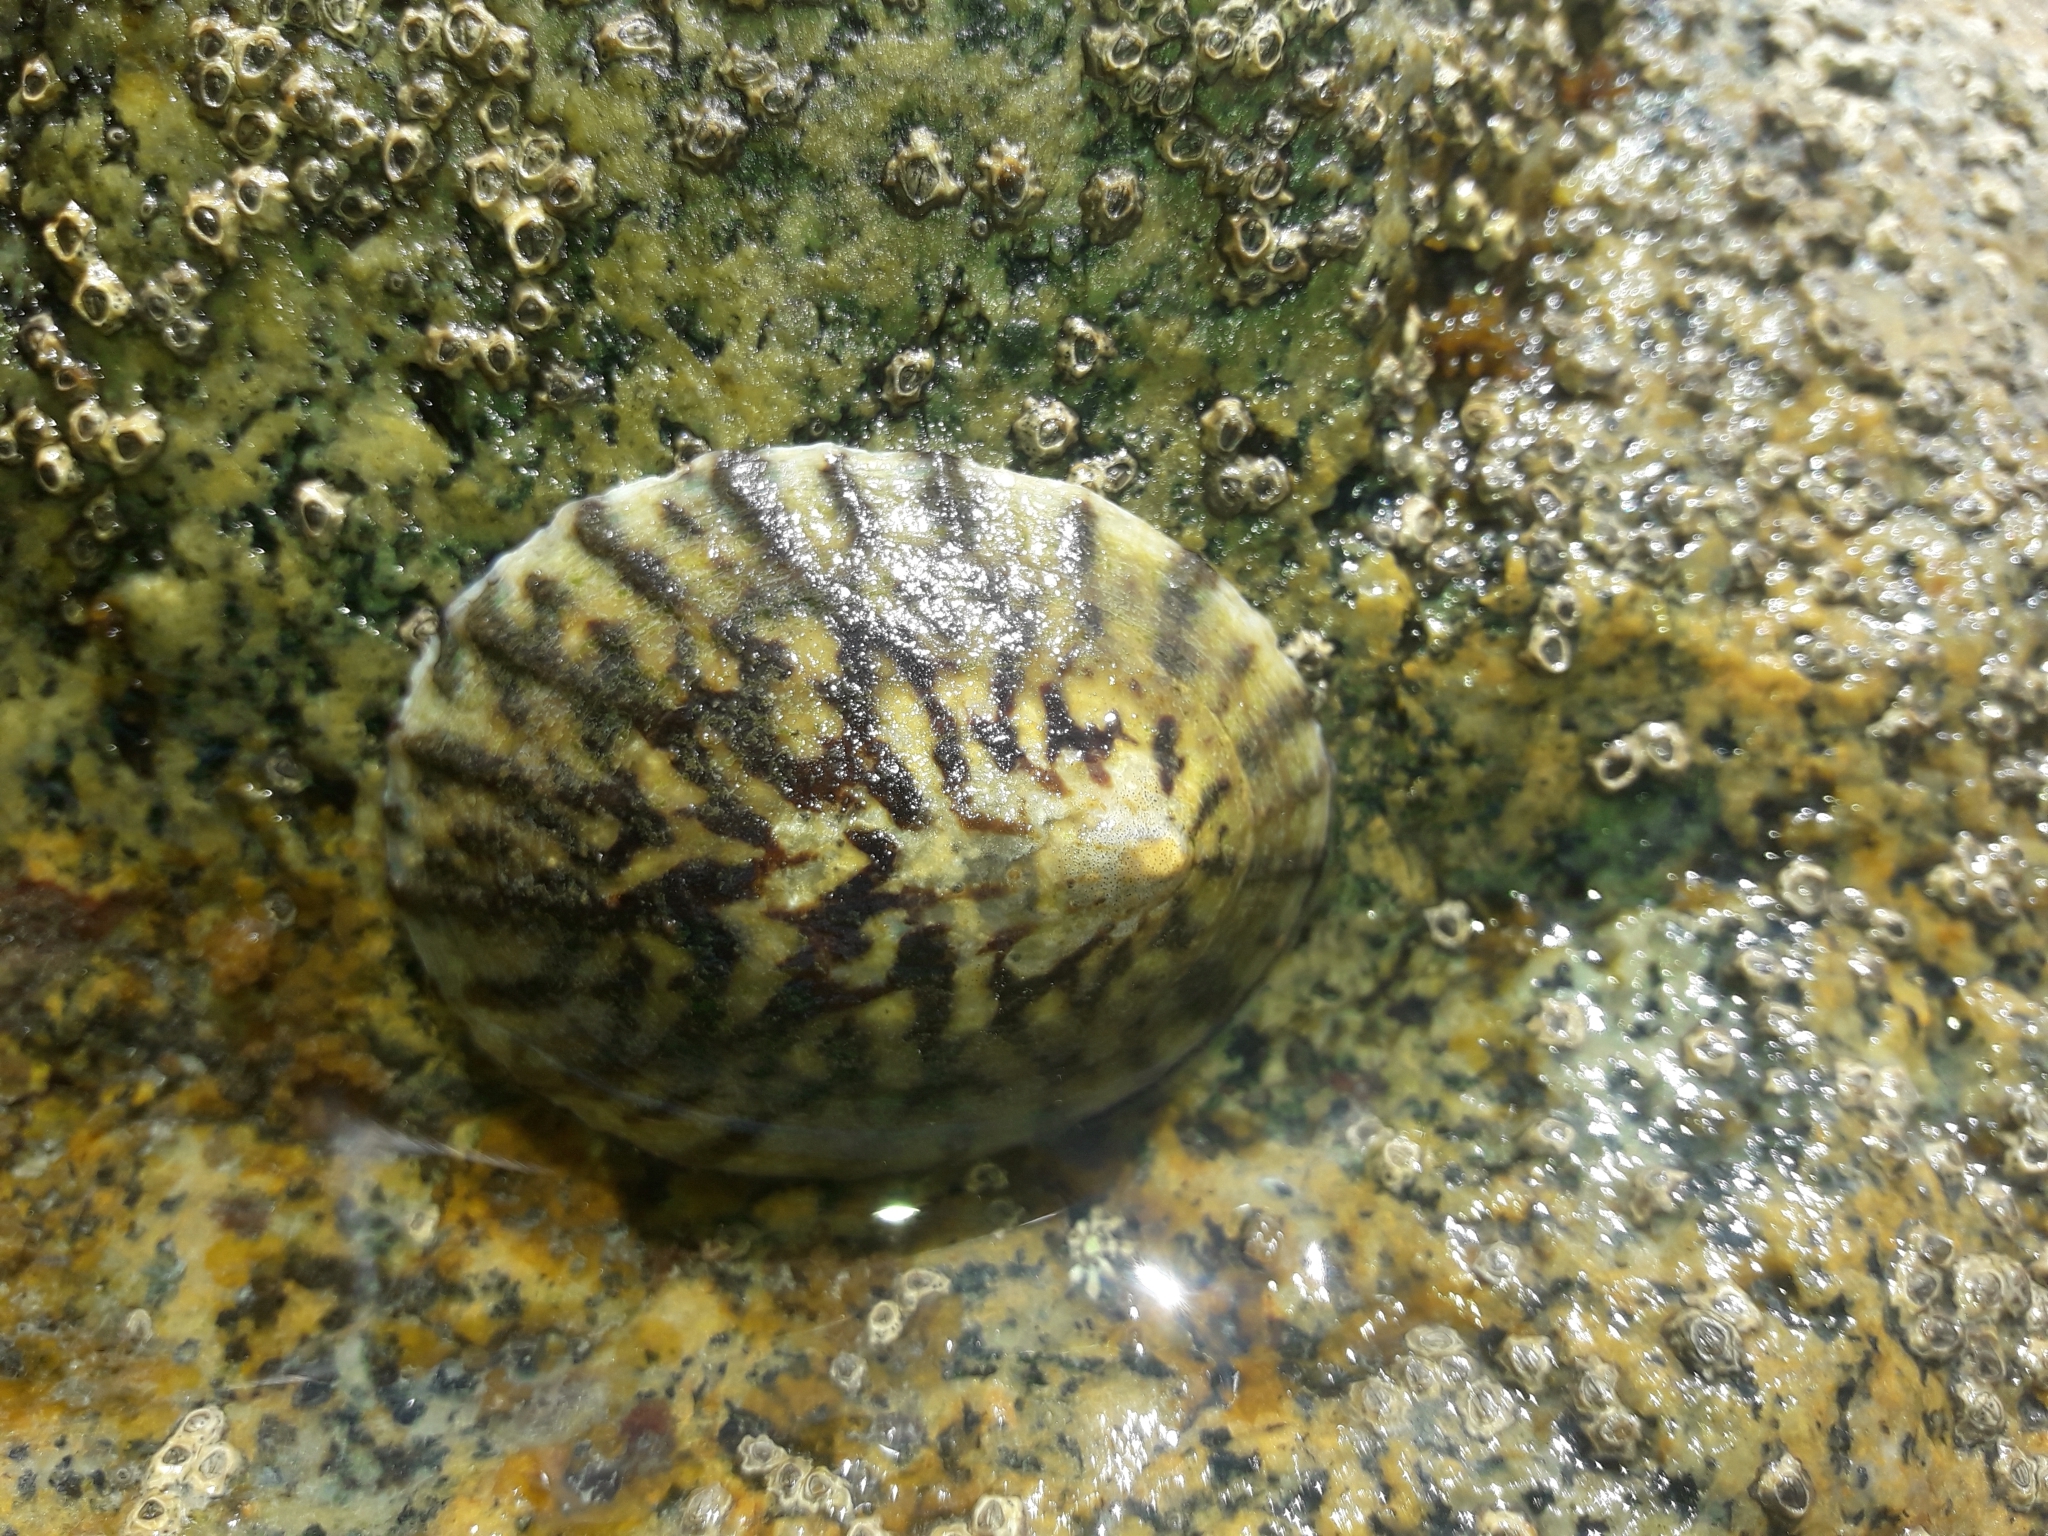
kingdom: Animalia
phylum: Mollusca
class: Gastropoda
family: Nacellidae
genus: Cellana
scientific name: Cellana radians
